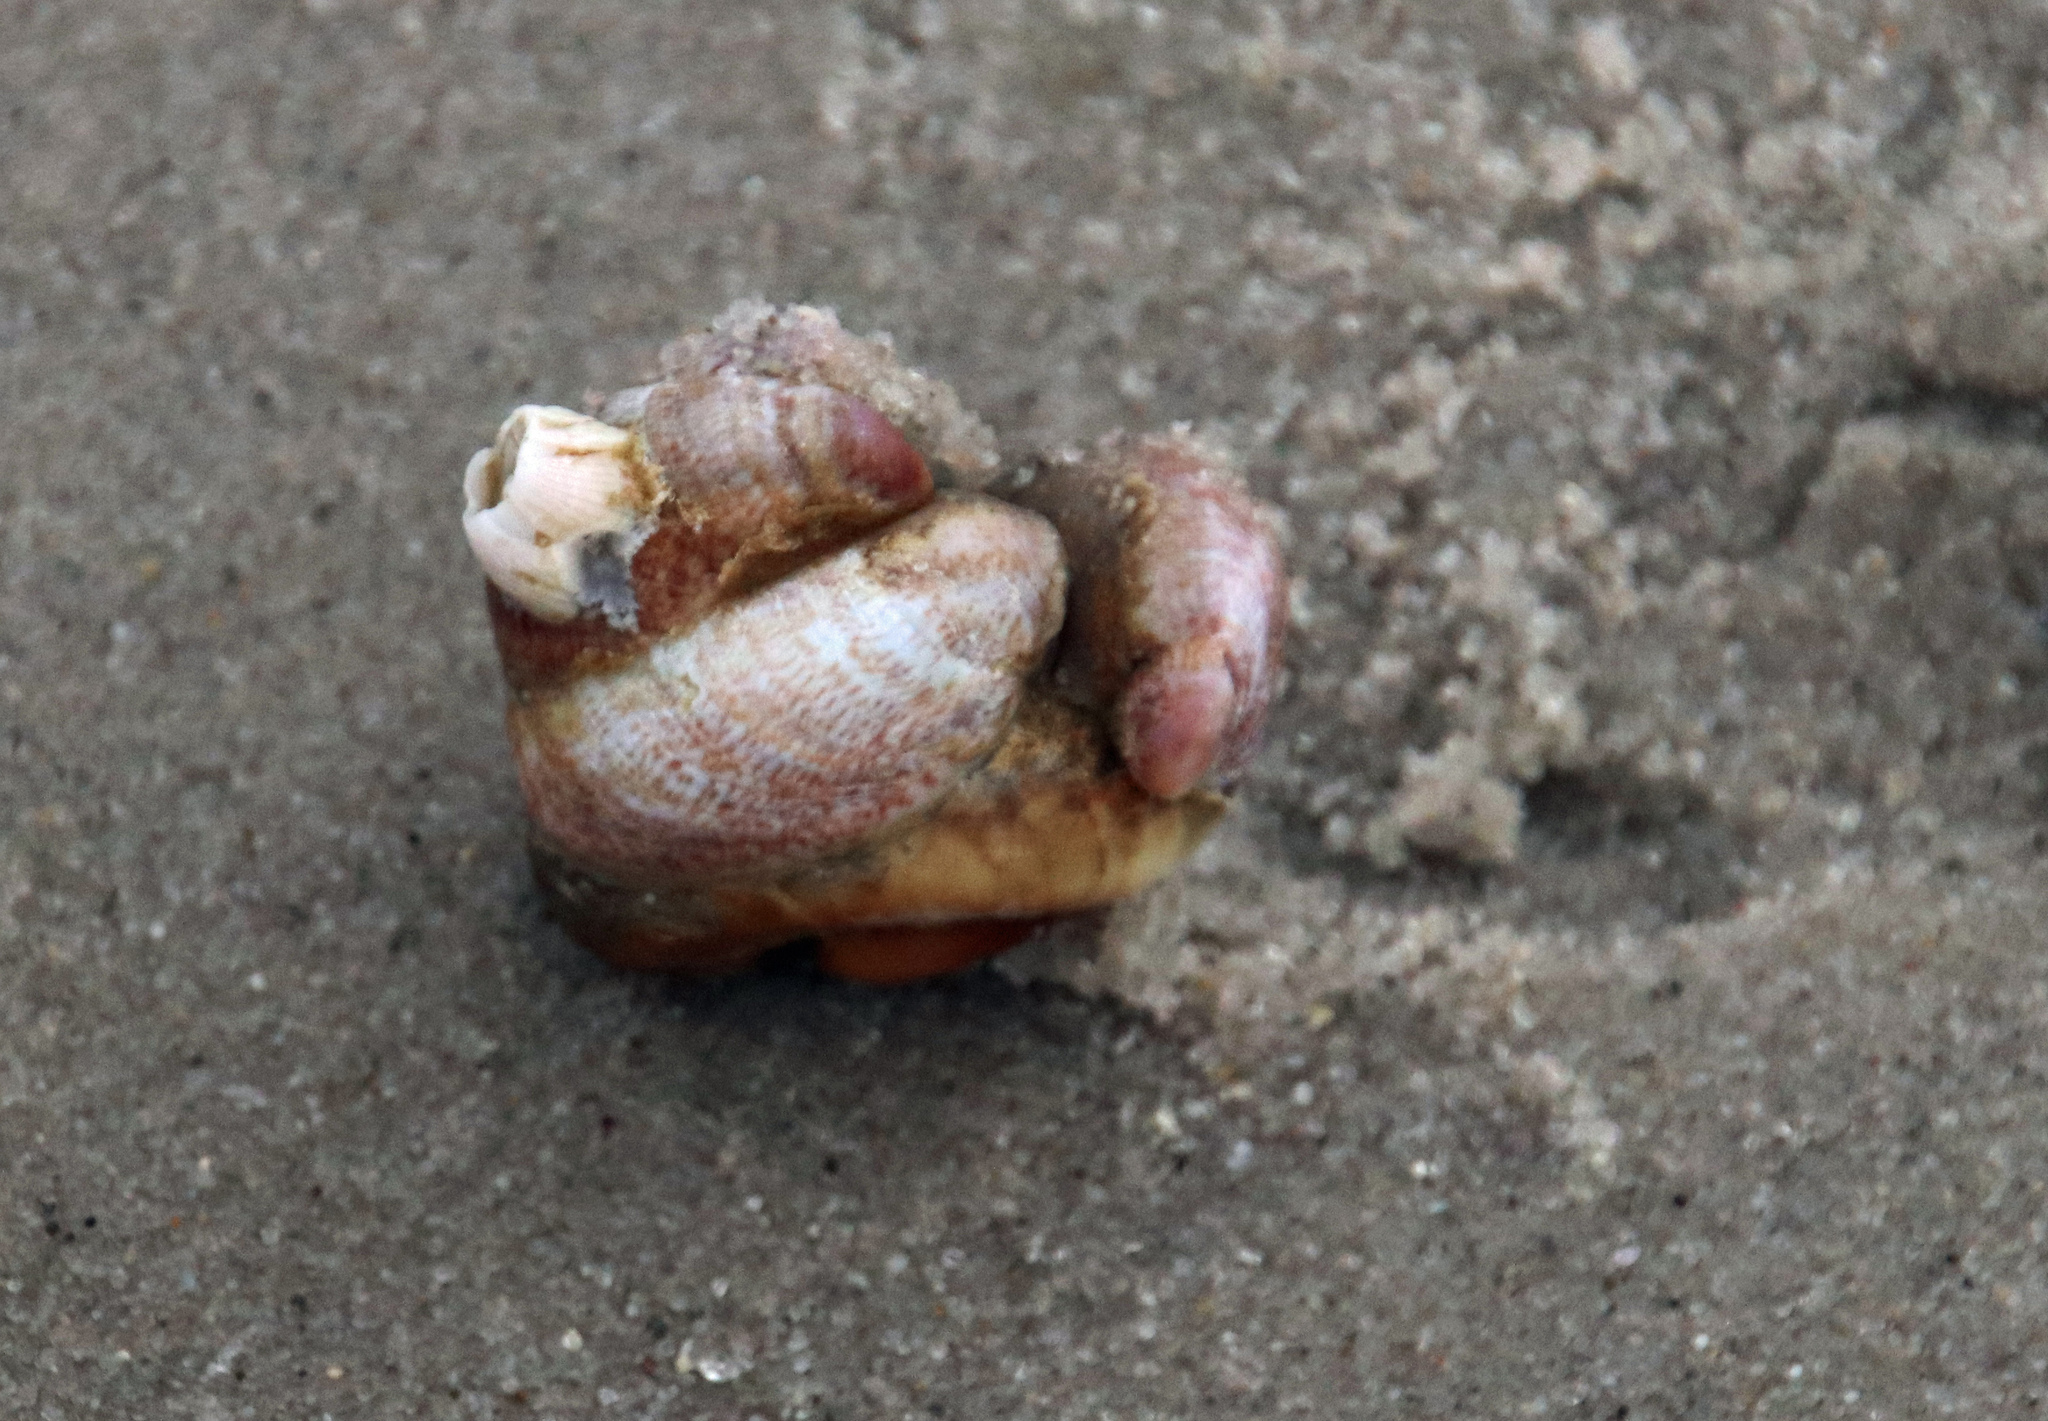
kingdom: Animalia
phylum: Arthropoda
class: Malacostraca
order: Decapoda
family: Paguridae
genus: Pagurus
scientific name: Pagurus pollicaris
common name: Flatclaw hermit
